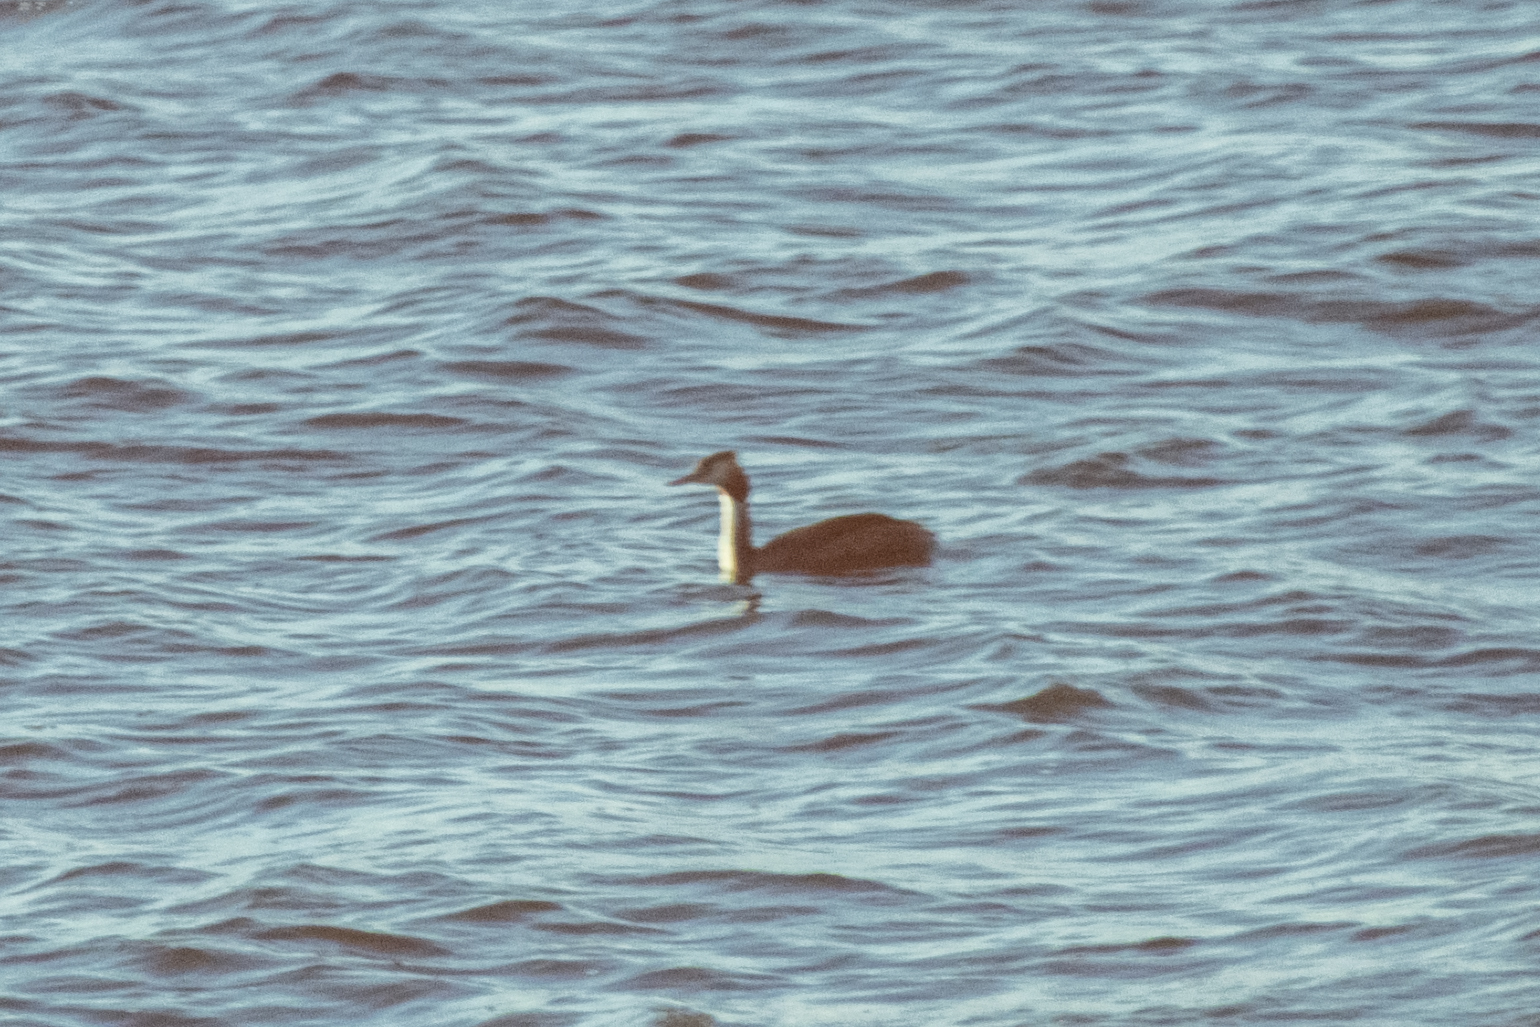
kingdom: Animalia
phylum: Chordata
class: Aves
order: Podicipediformes
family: Podicipedidae
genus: Podiceps
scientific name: Podiceps cristatus
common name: Great crested grebe
